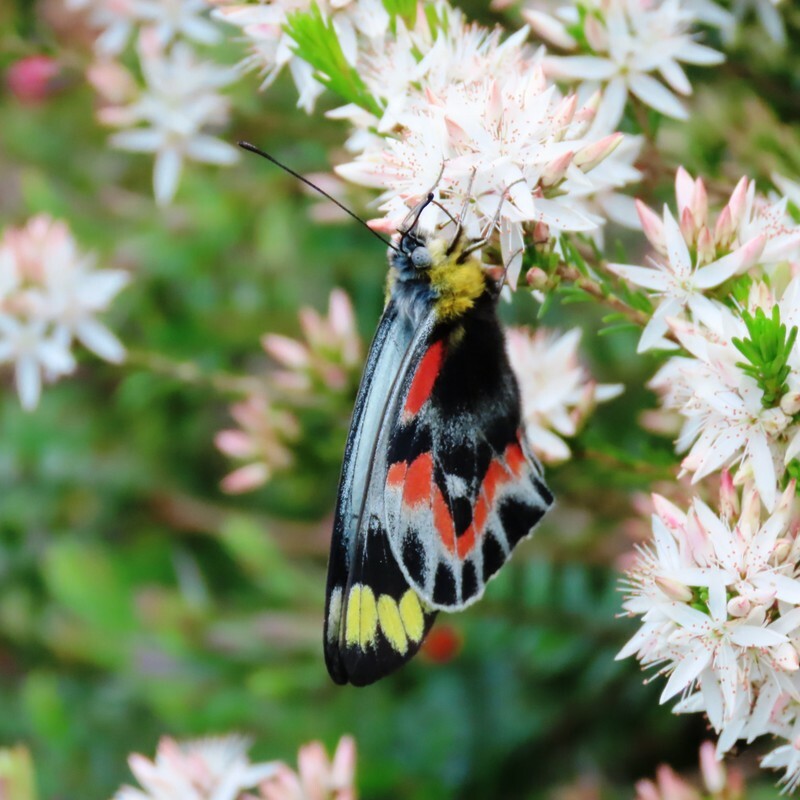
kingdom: Animalia
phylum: Arthropoda
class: Insecta
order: Lepidoptera
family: Pieridae
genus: Delias
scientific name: Delias harpalyce
